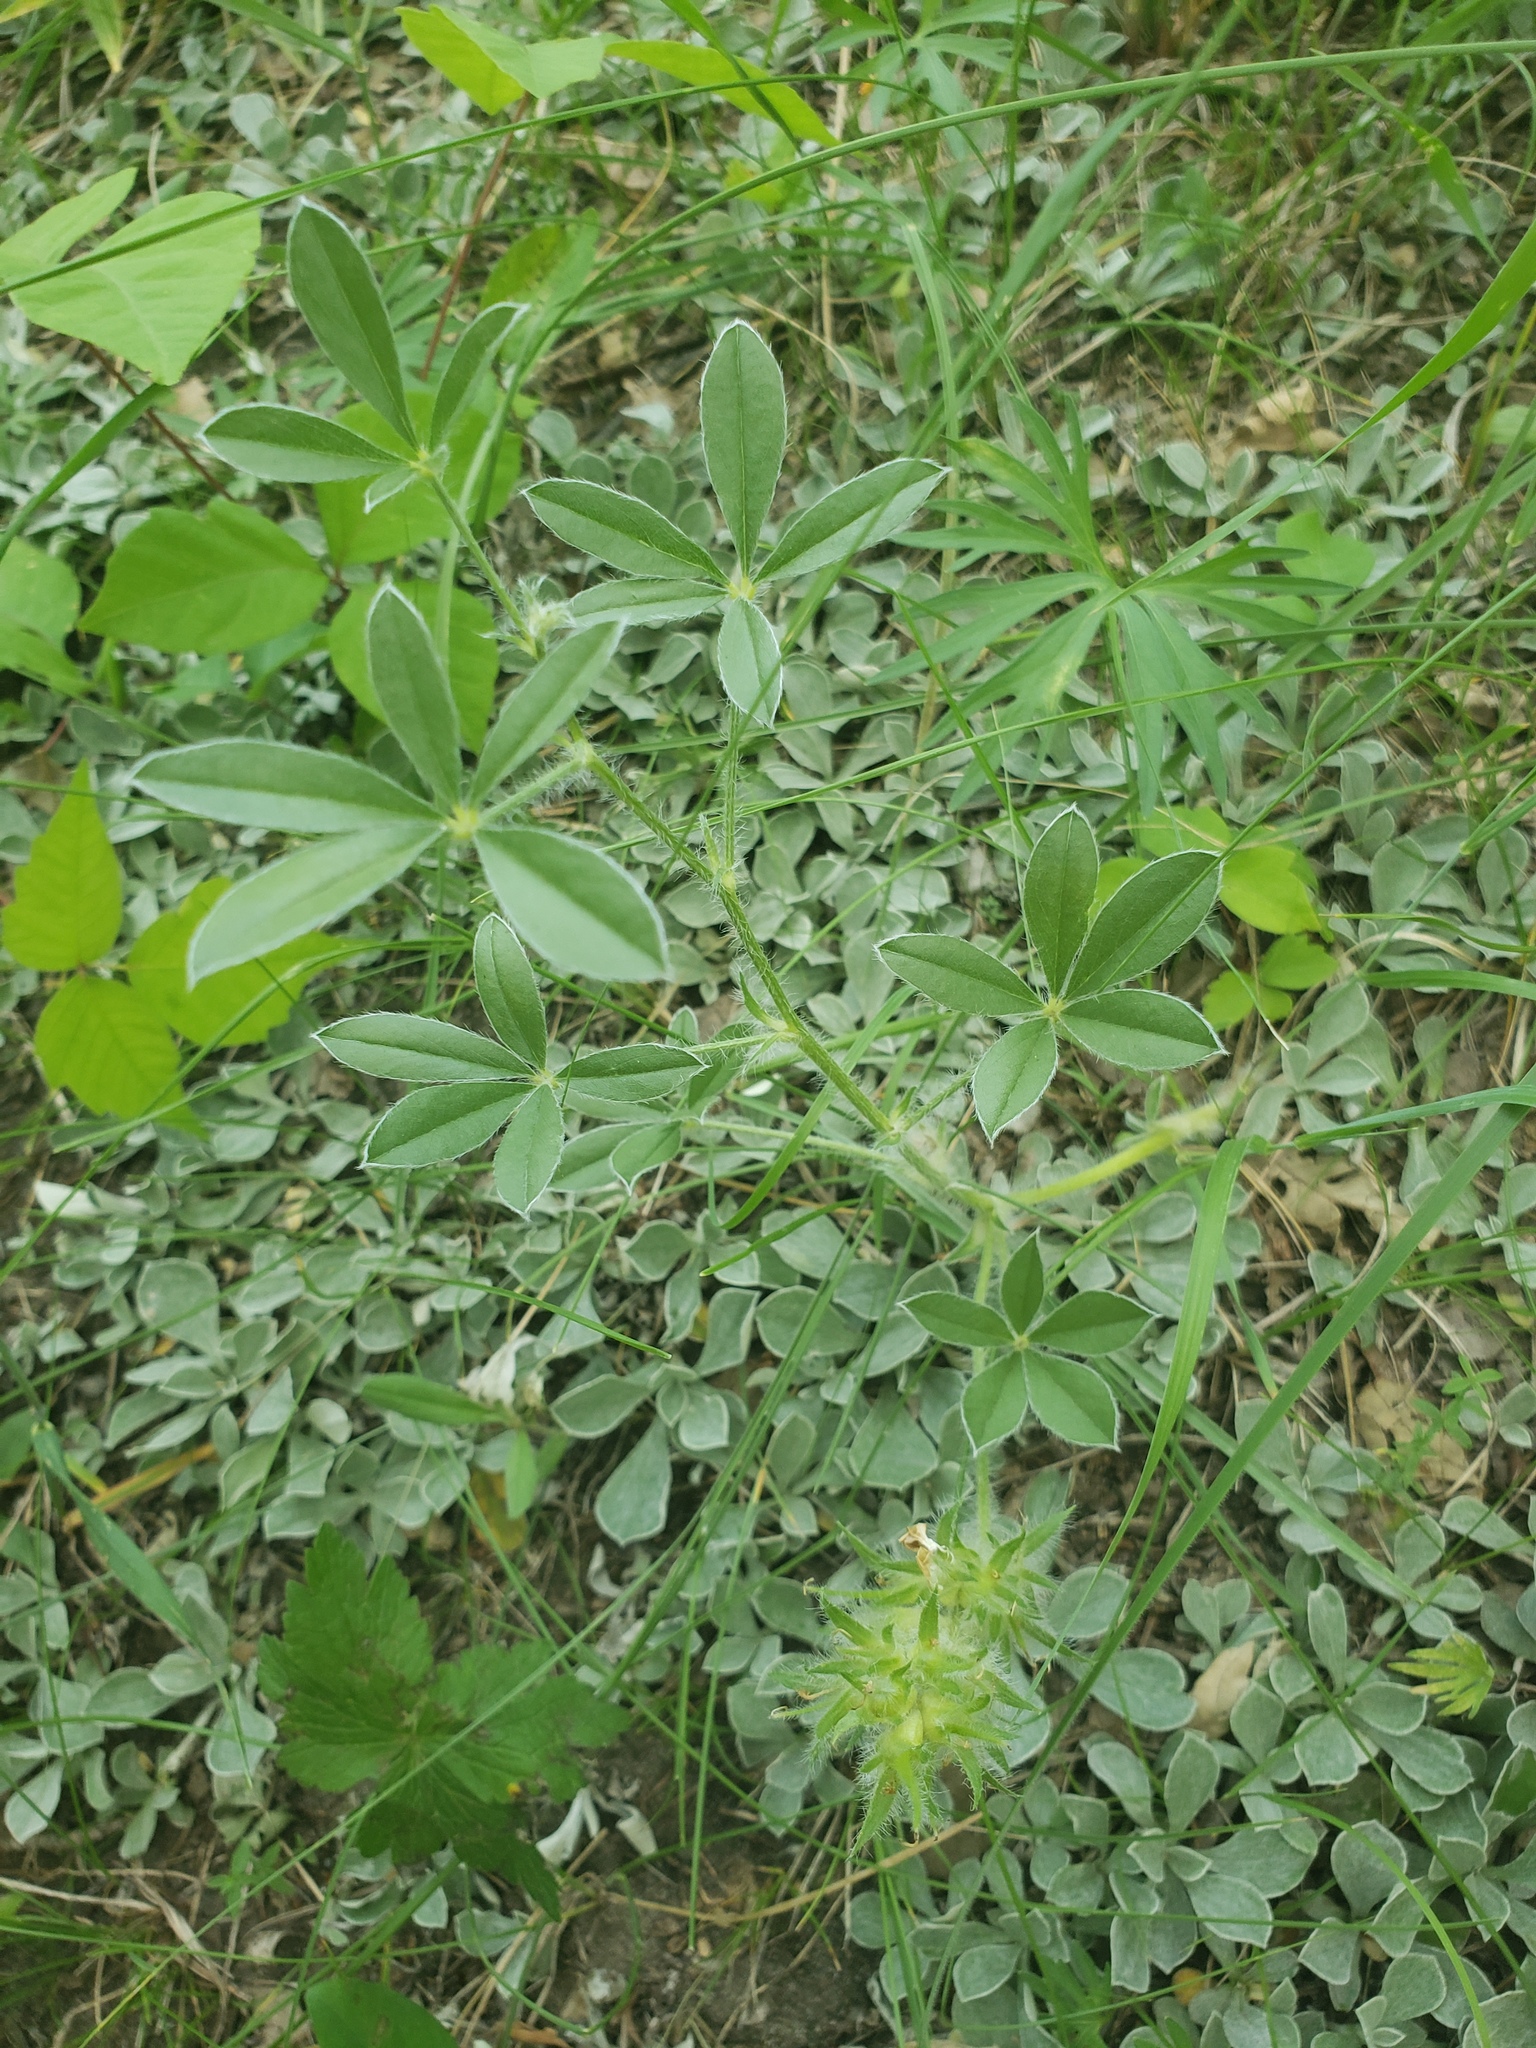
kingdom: Plantae
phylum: Tracheophyta
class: Magnoliopsida
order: Fabales
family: Fabaceae
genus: Pediomelum
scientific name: Pediomelum esculentum
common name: Indian-turnip
